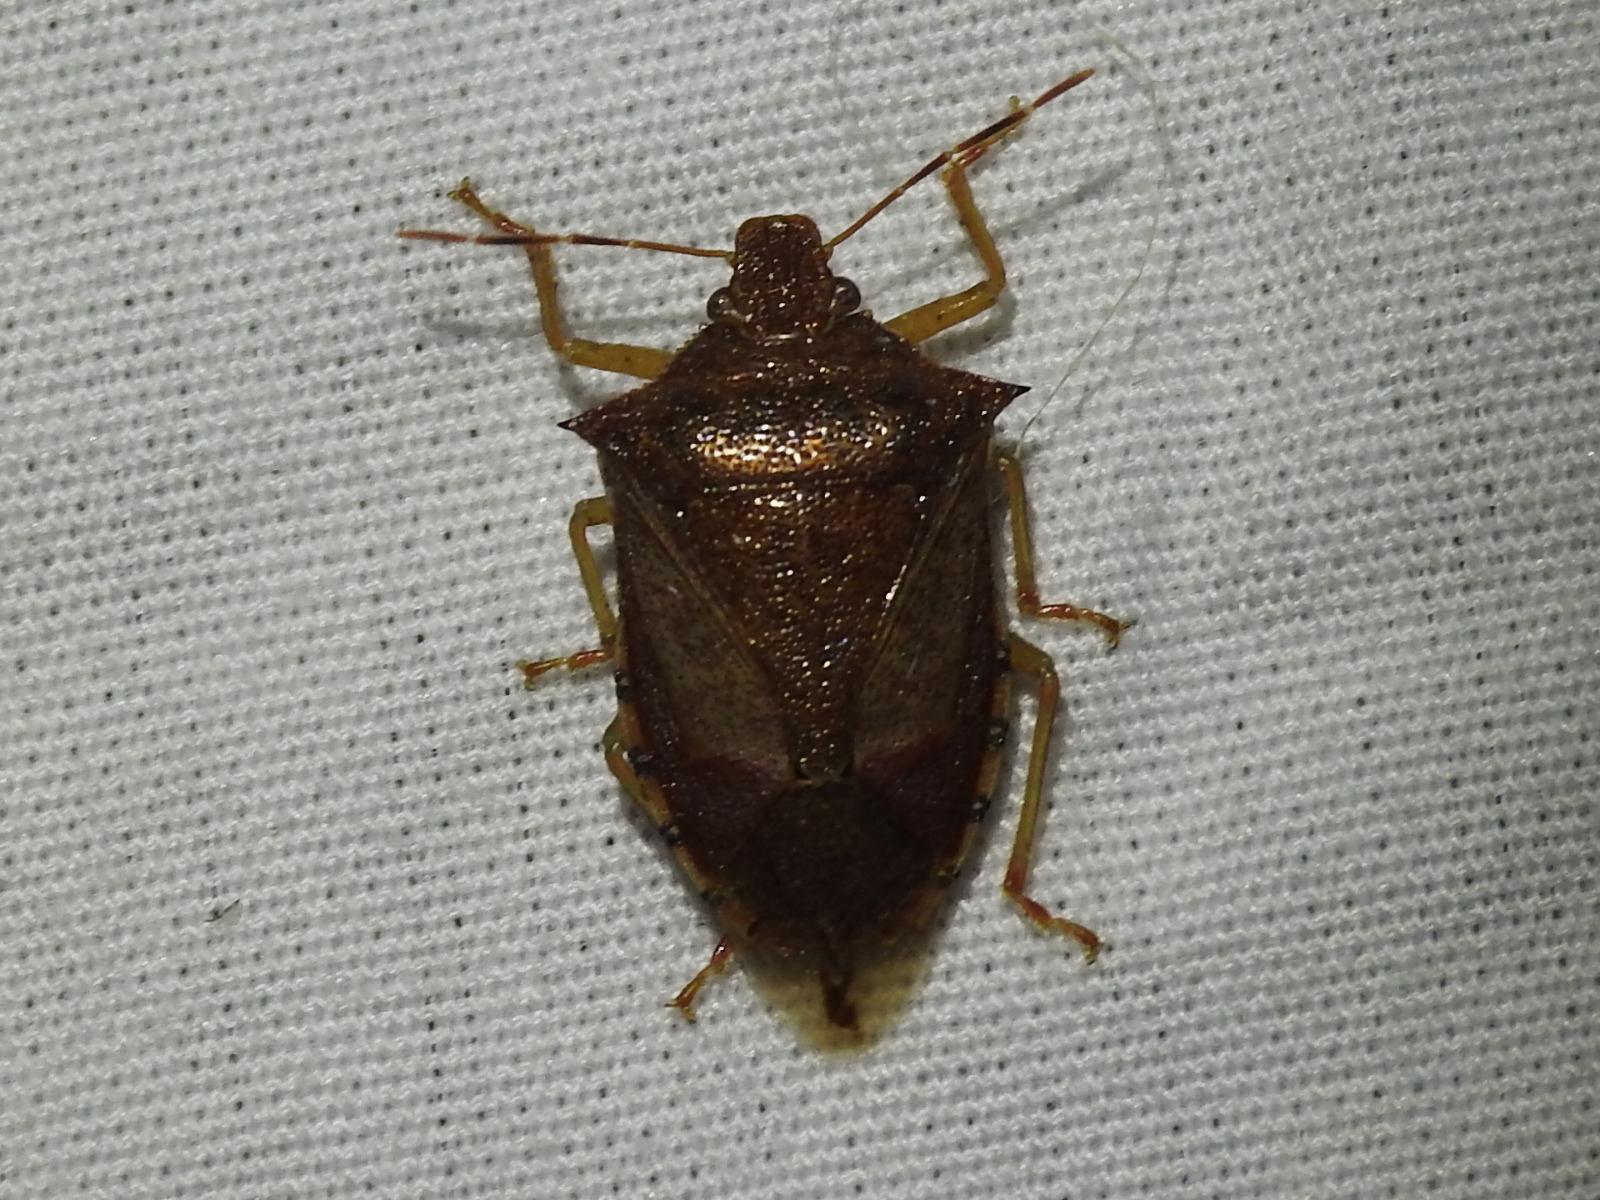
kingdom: Animalia
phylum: Arthropoda
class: Insecta
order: Hemiptera
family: Pentatomidae
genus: Podisus
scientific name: Podisus maculiventris
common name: Spined soldier bug
